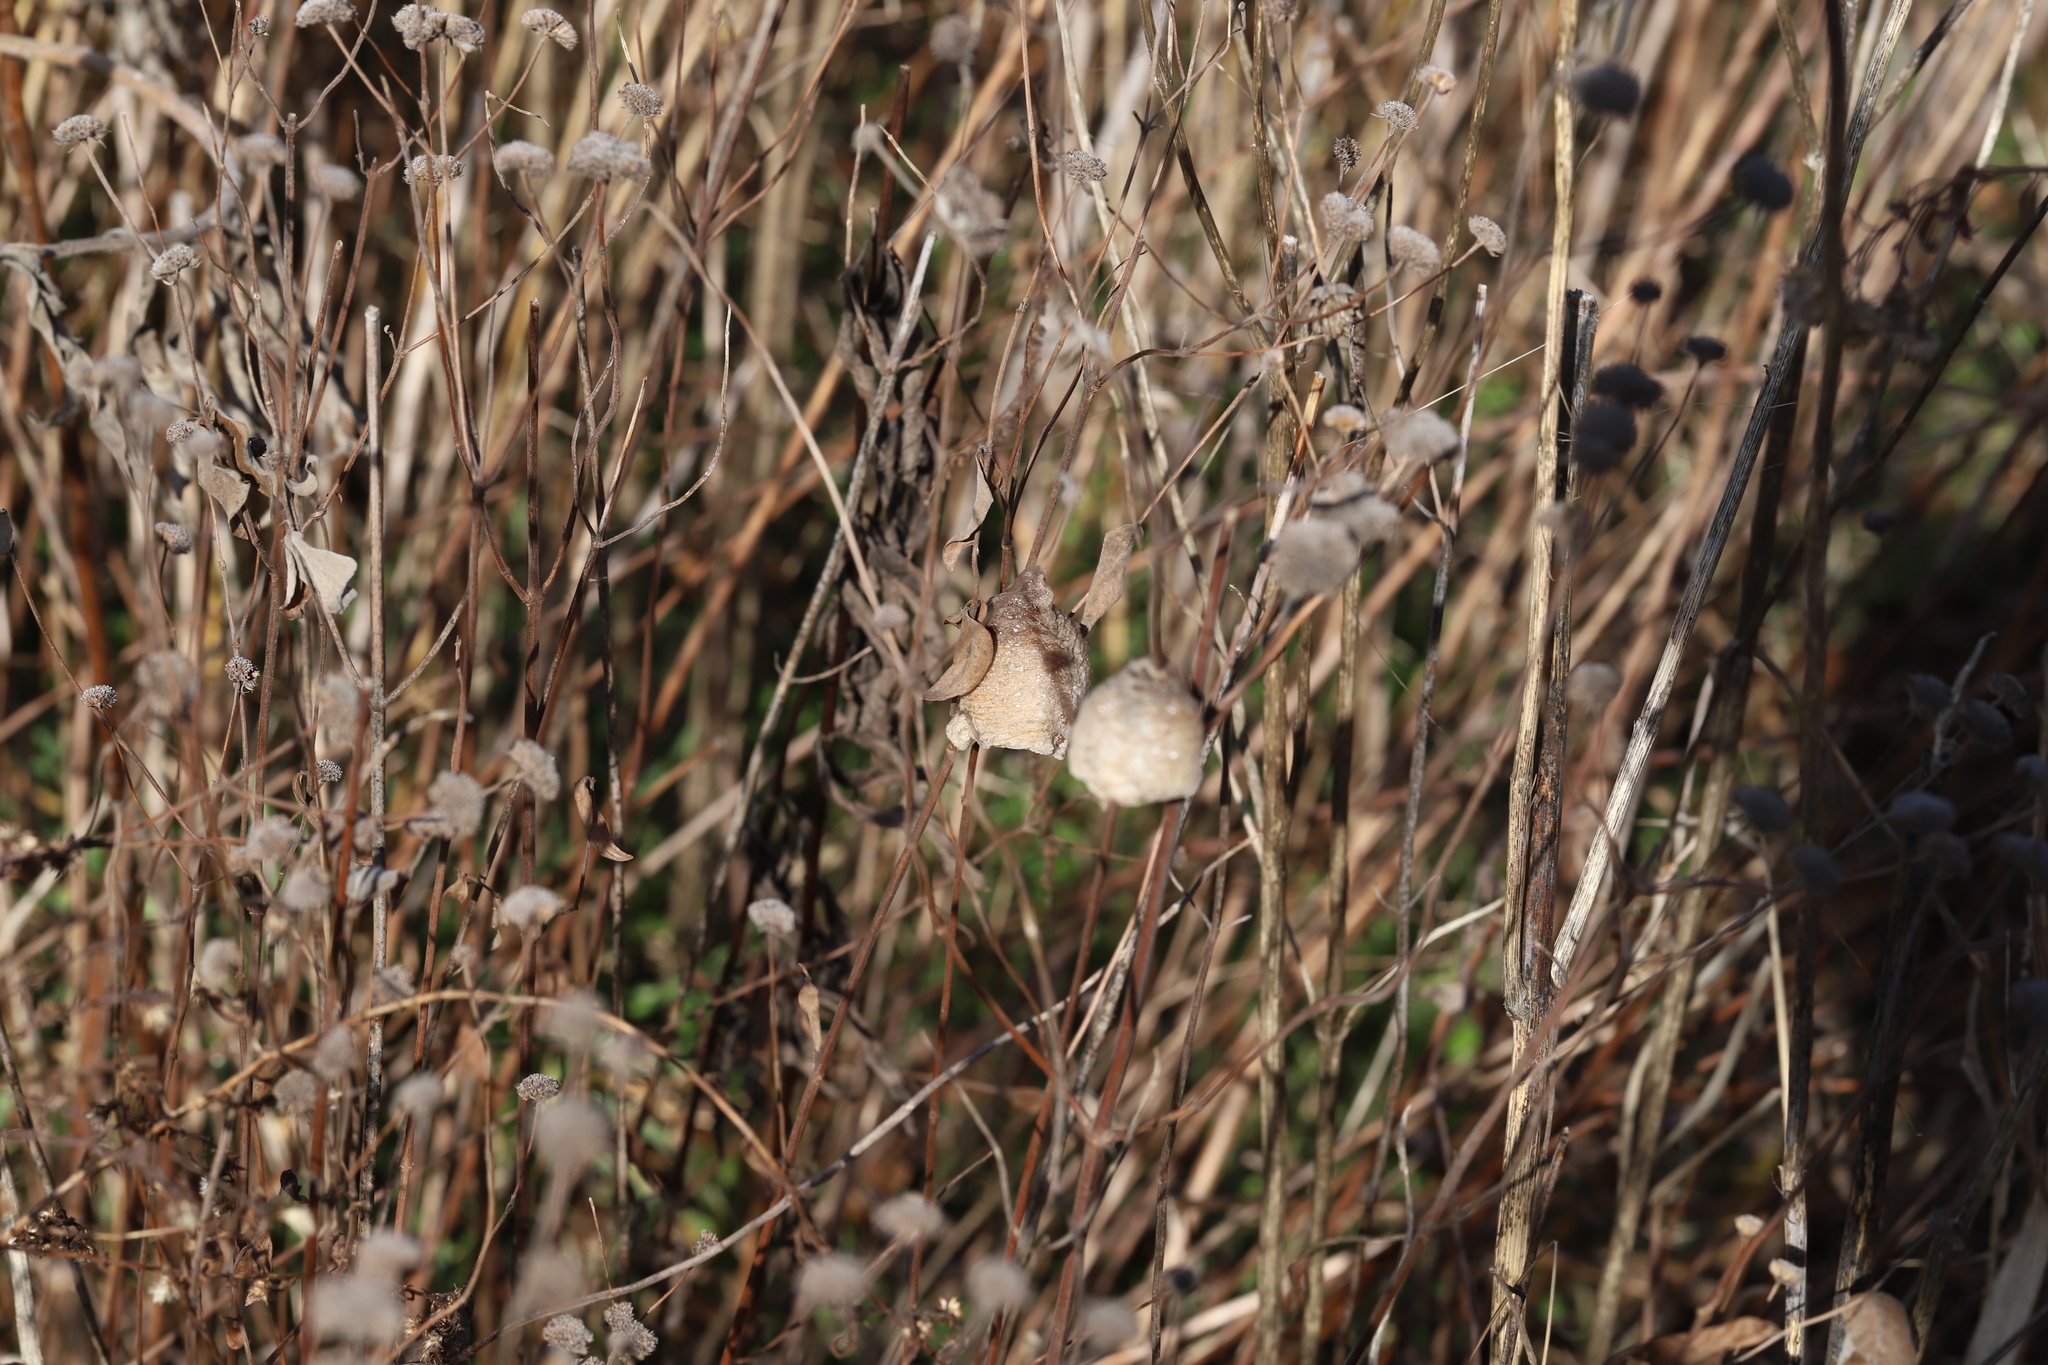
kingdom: Animalia
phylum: Arthropoda
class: Insecta
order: Mantodea
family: Mantidae
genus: Tenodera
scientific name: Tenodera sinensis
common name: Chinese mantis
